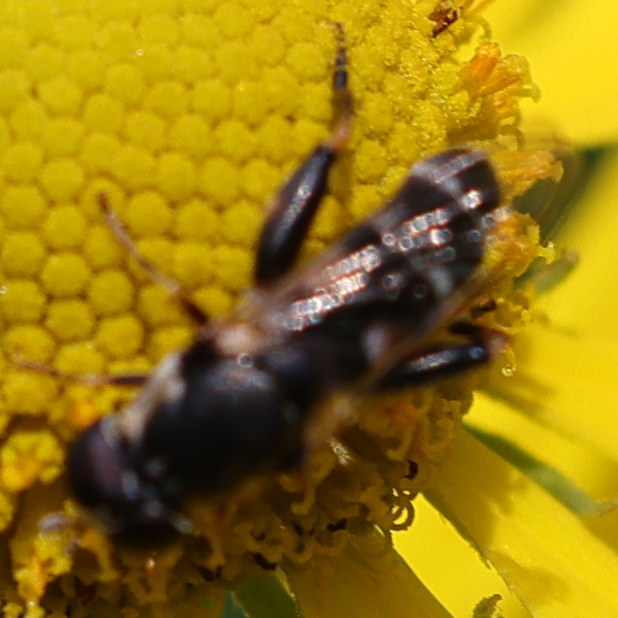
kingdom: Animalia
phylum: Arthropoda
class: Insecta
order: Diptera
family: Syrphidae
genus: Syritta
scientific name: Syritta pipiens
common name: Hover fly
